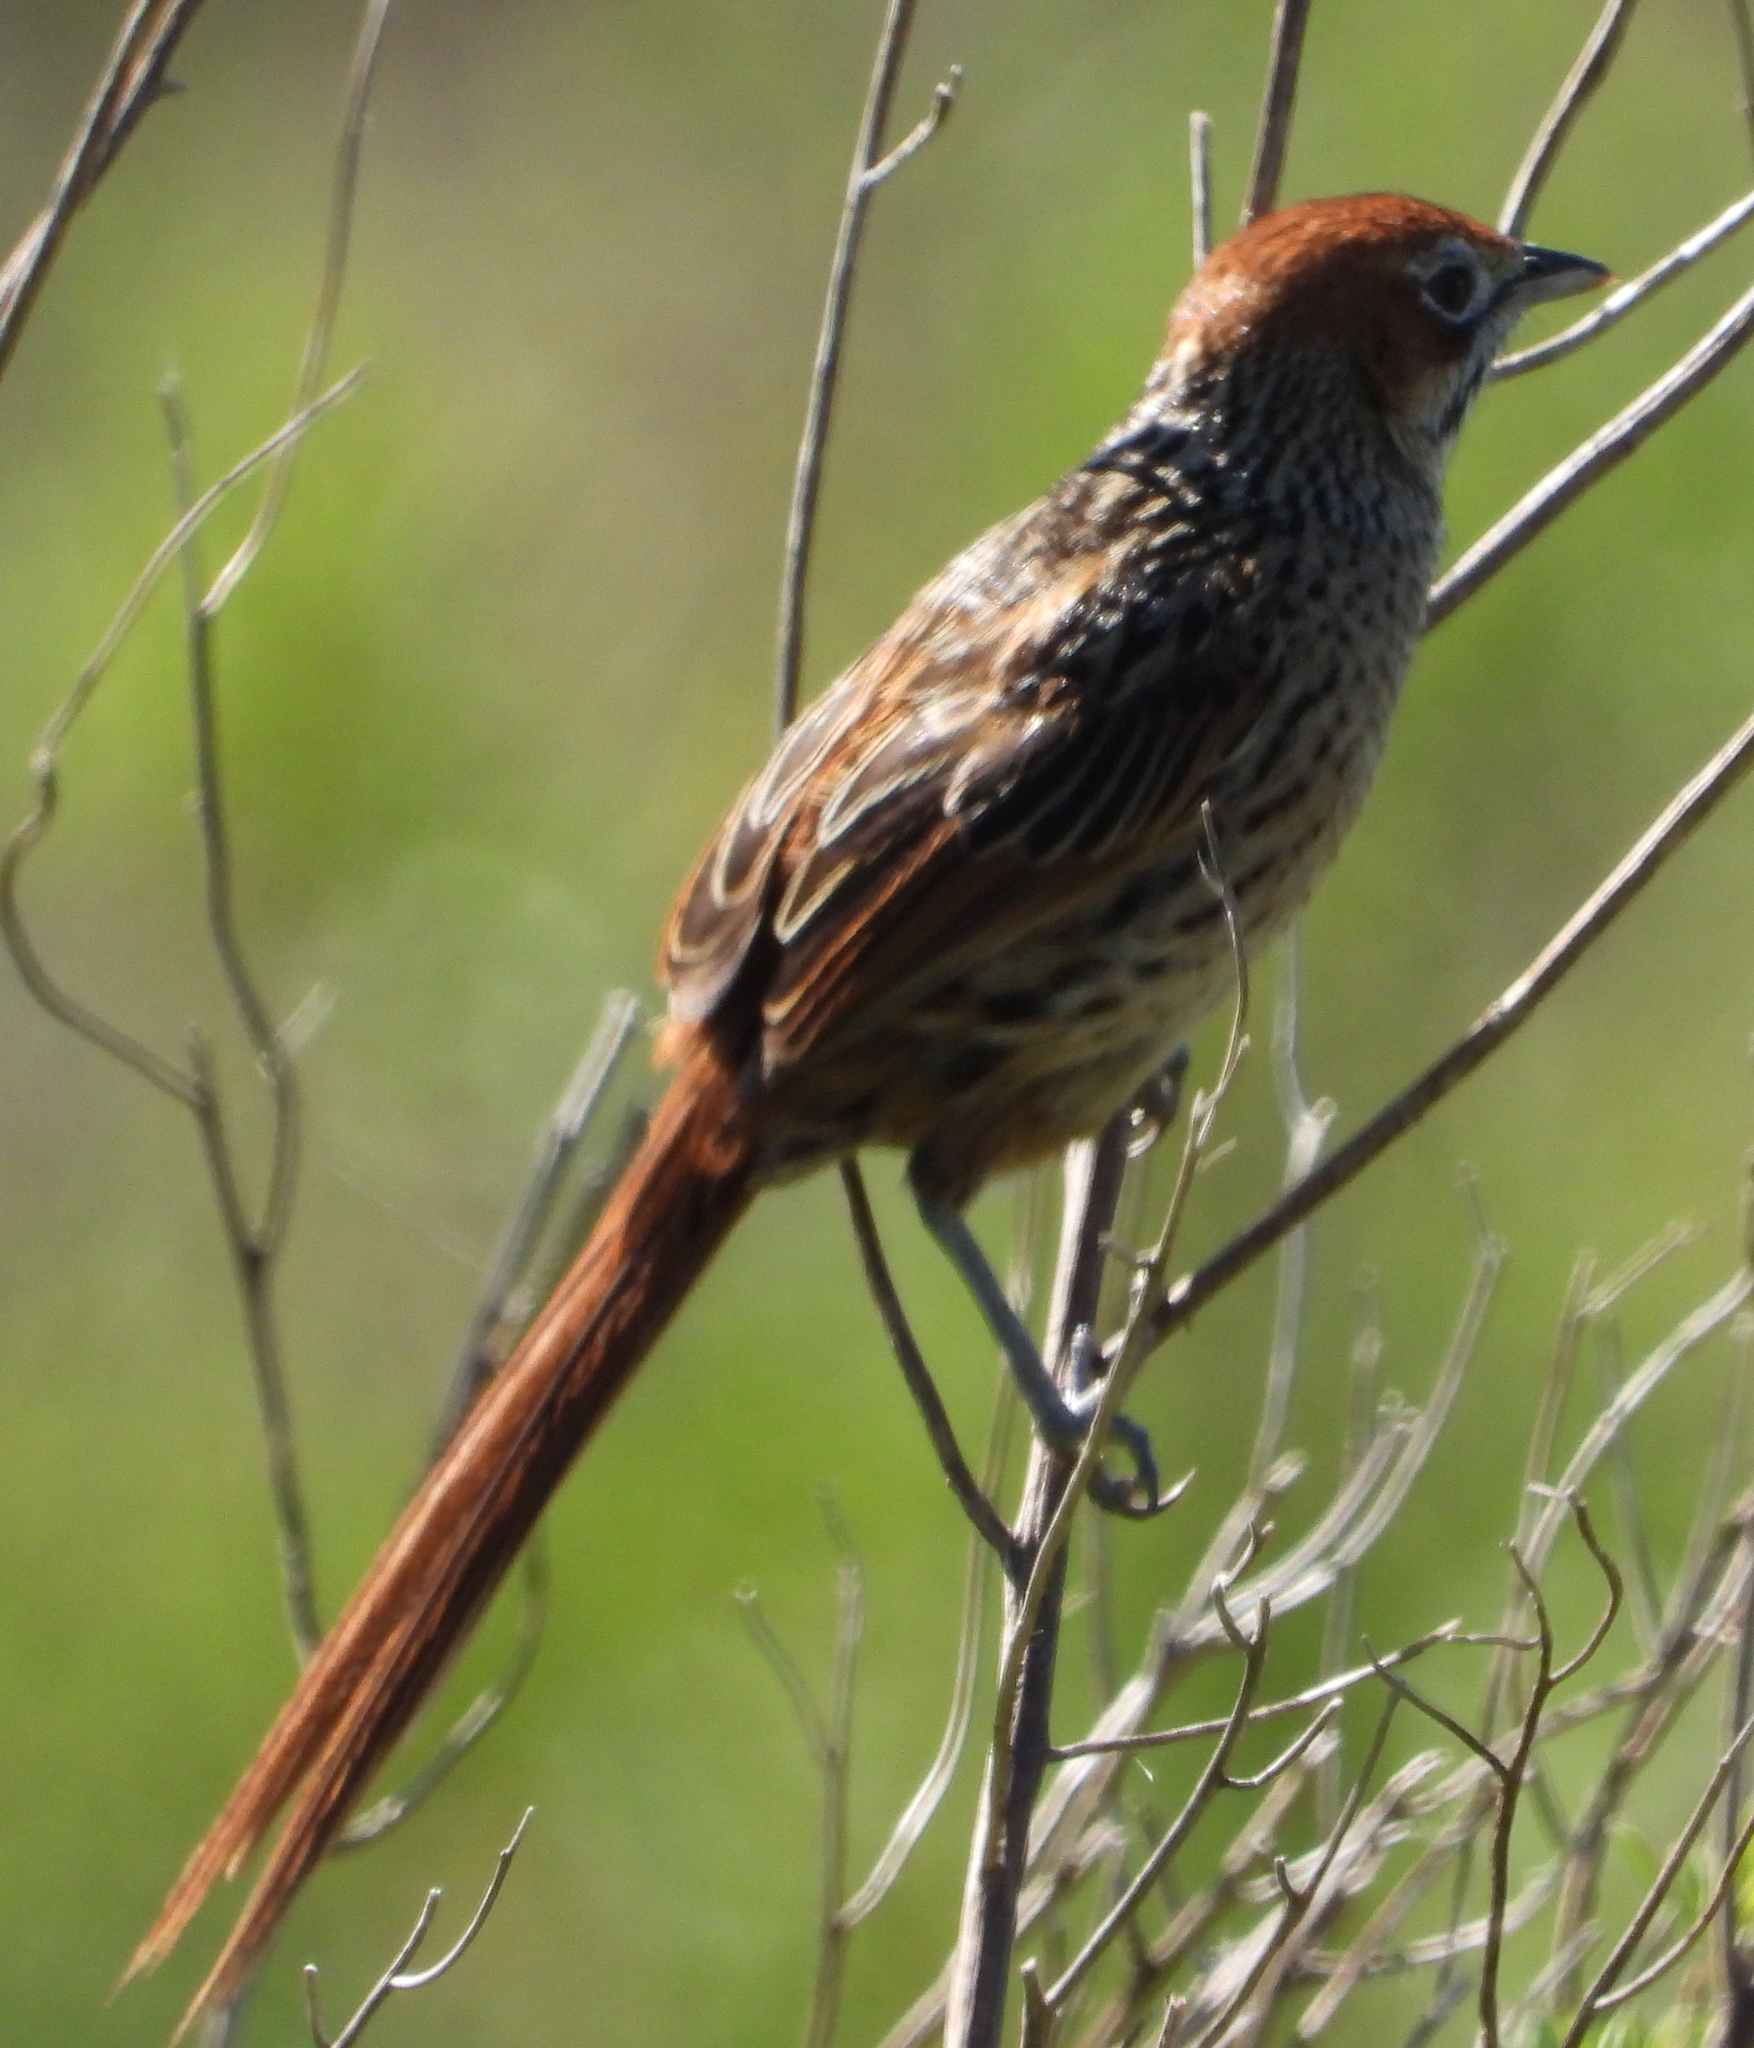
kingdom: Animalia
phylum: Chordata
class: Aves
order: Passeriformes
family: Macrosphenidae
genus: Sphenoeacus
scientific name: Sphenoeacus afer
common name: Cape grassbird
